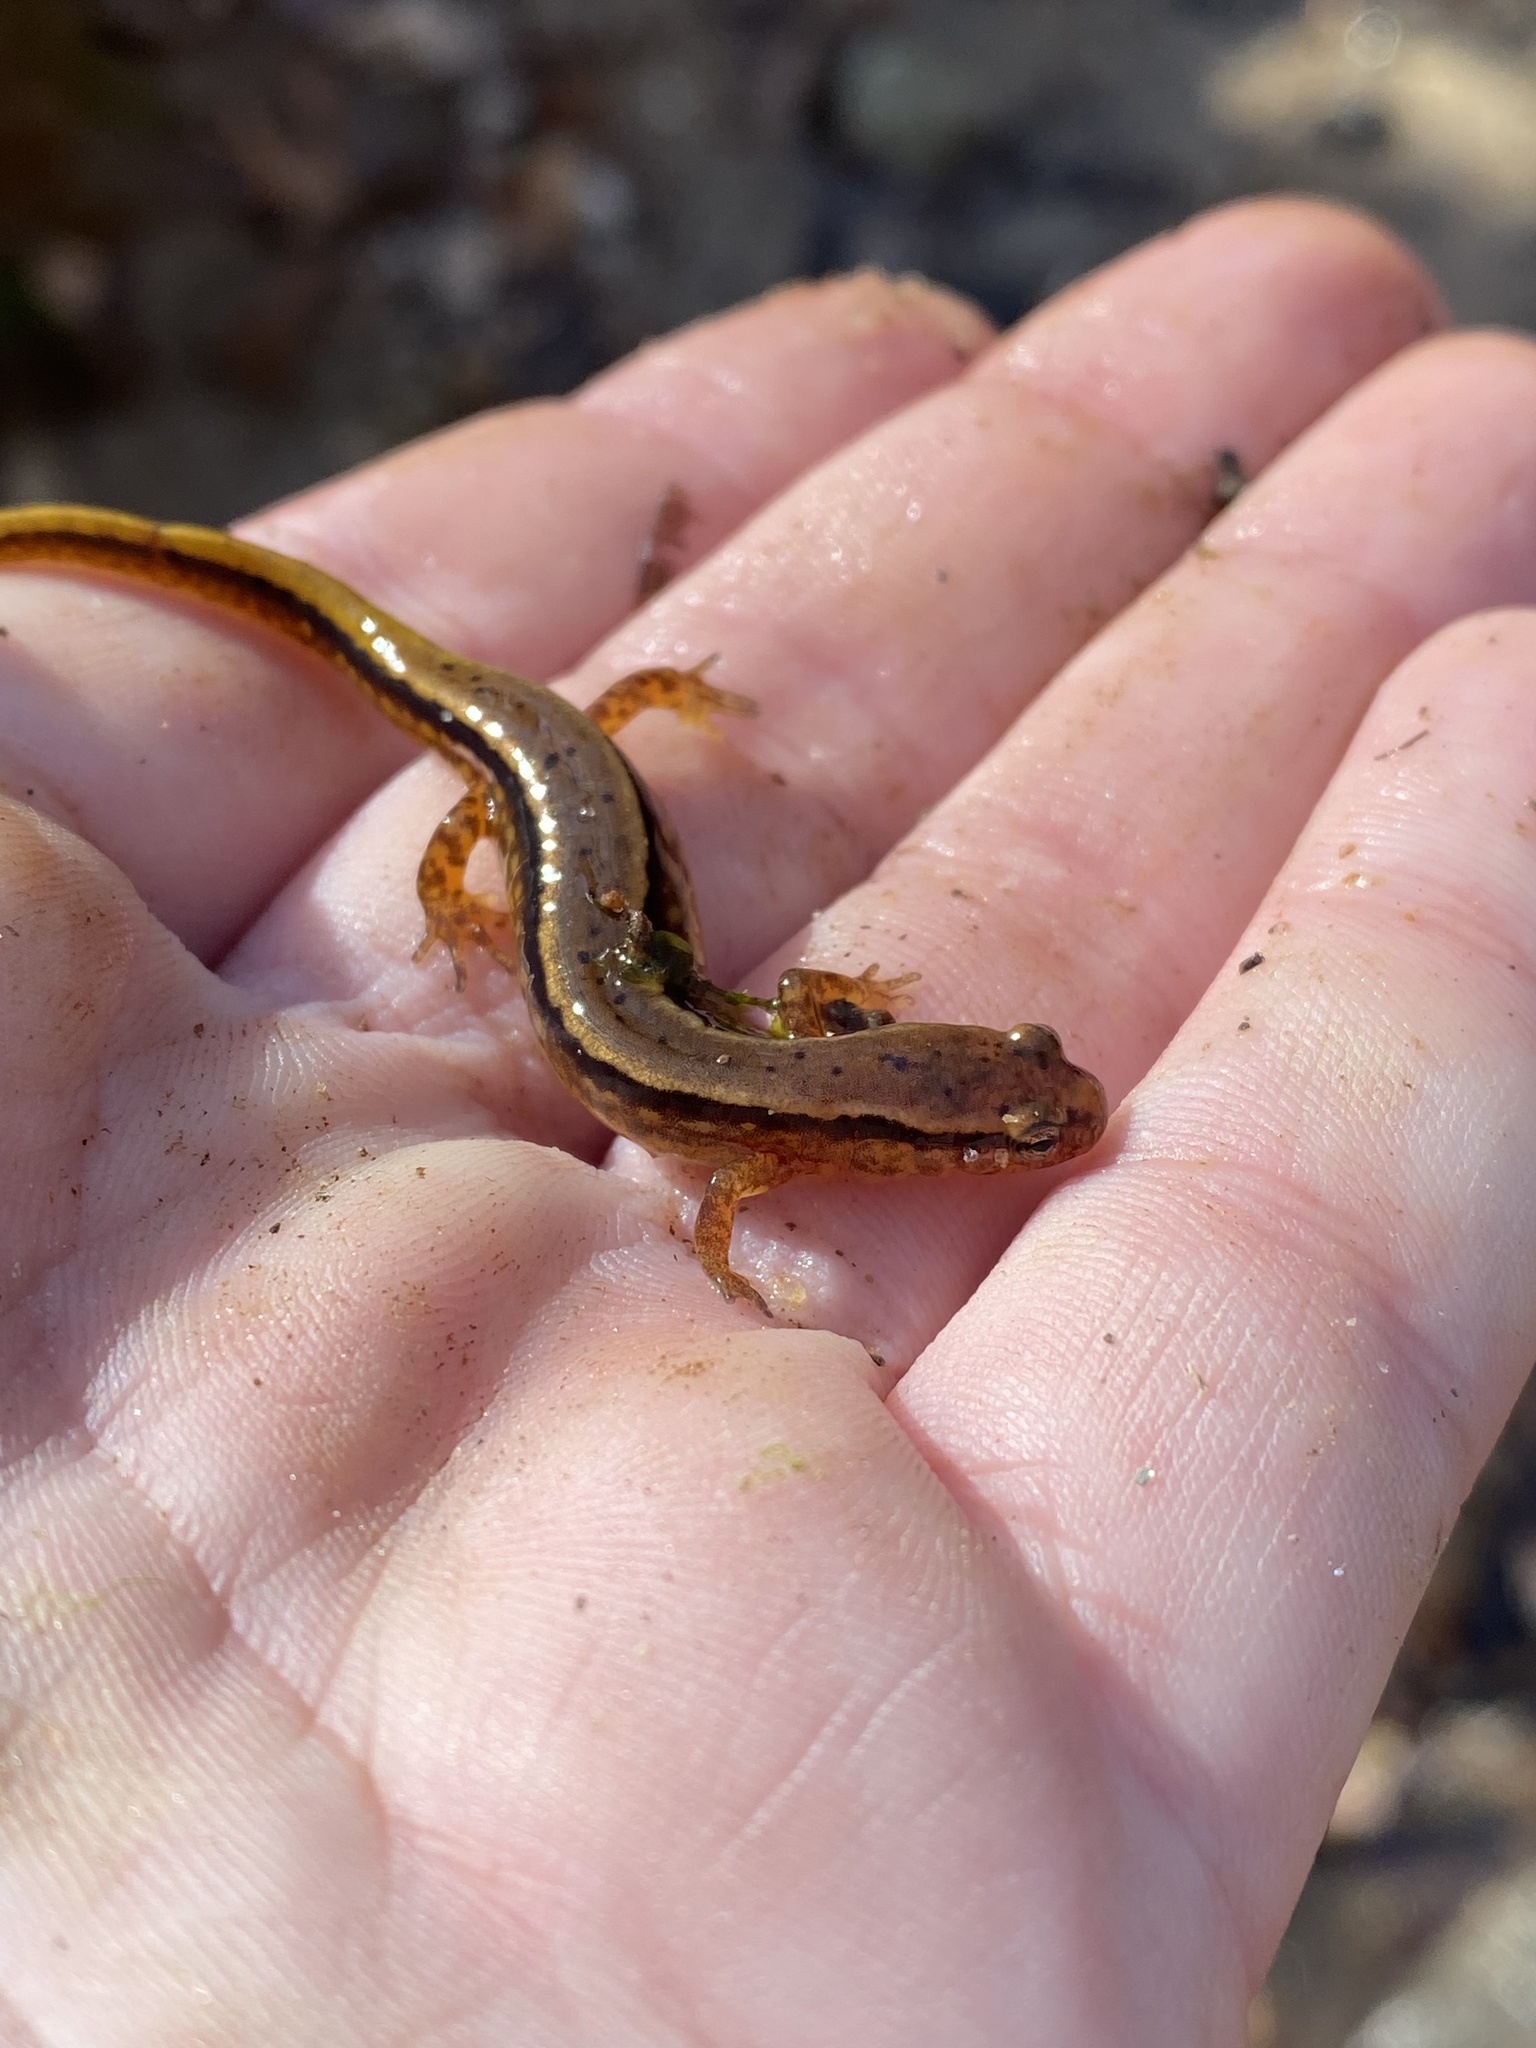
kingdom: Animalia
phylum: Chordata
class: Amphibia
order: Caudata
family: Plethodontidae
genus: Eurycea
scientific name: Eurycea cirrigera
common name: Southern two-lined salamander
